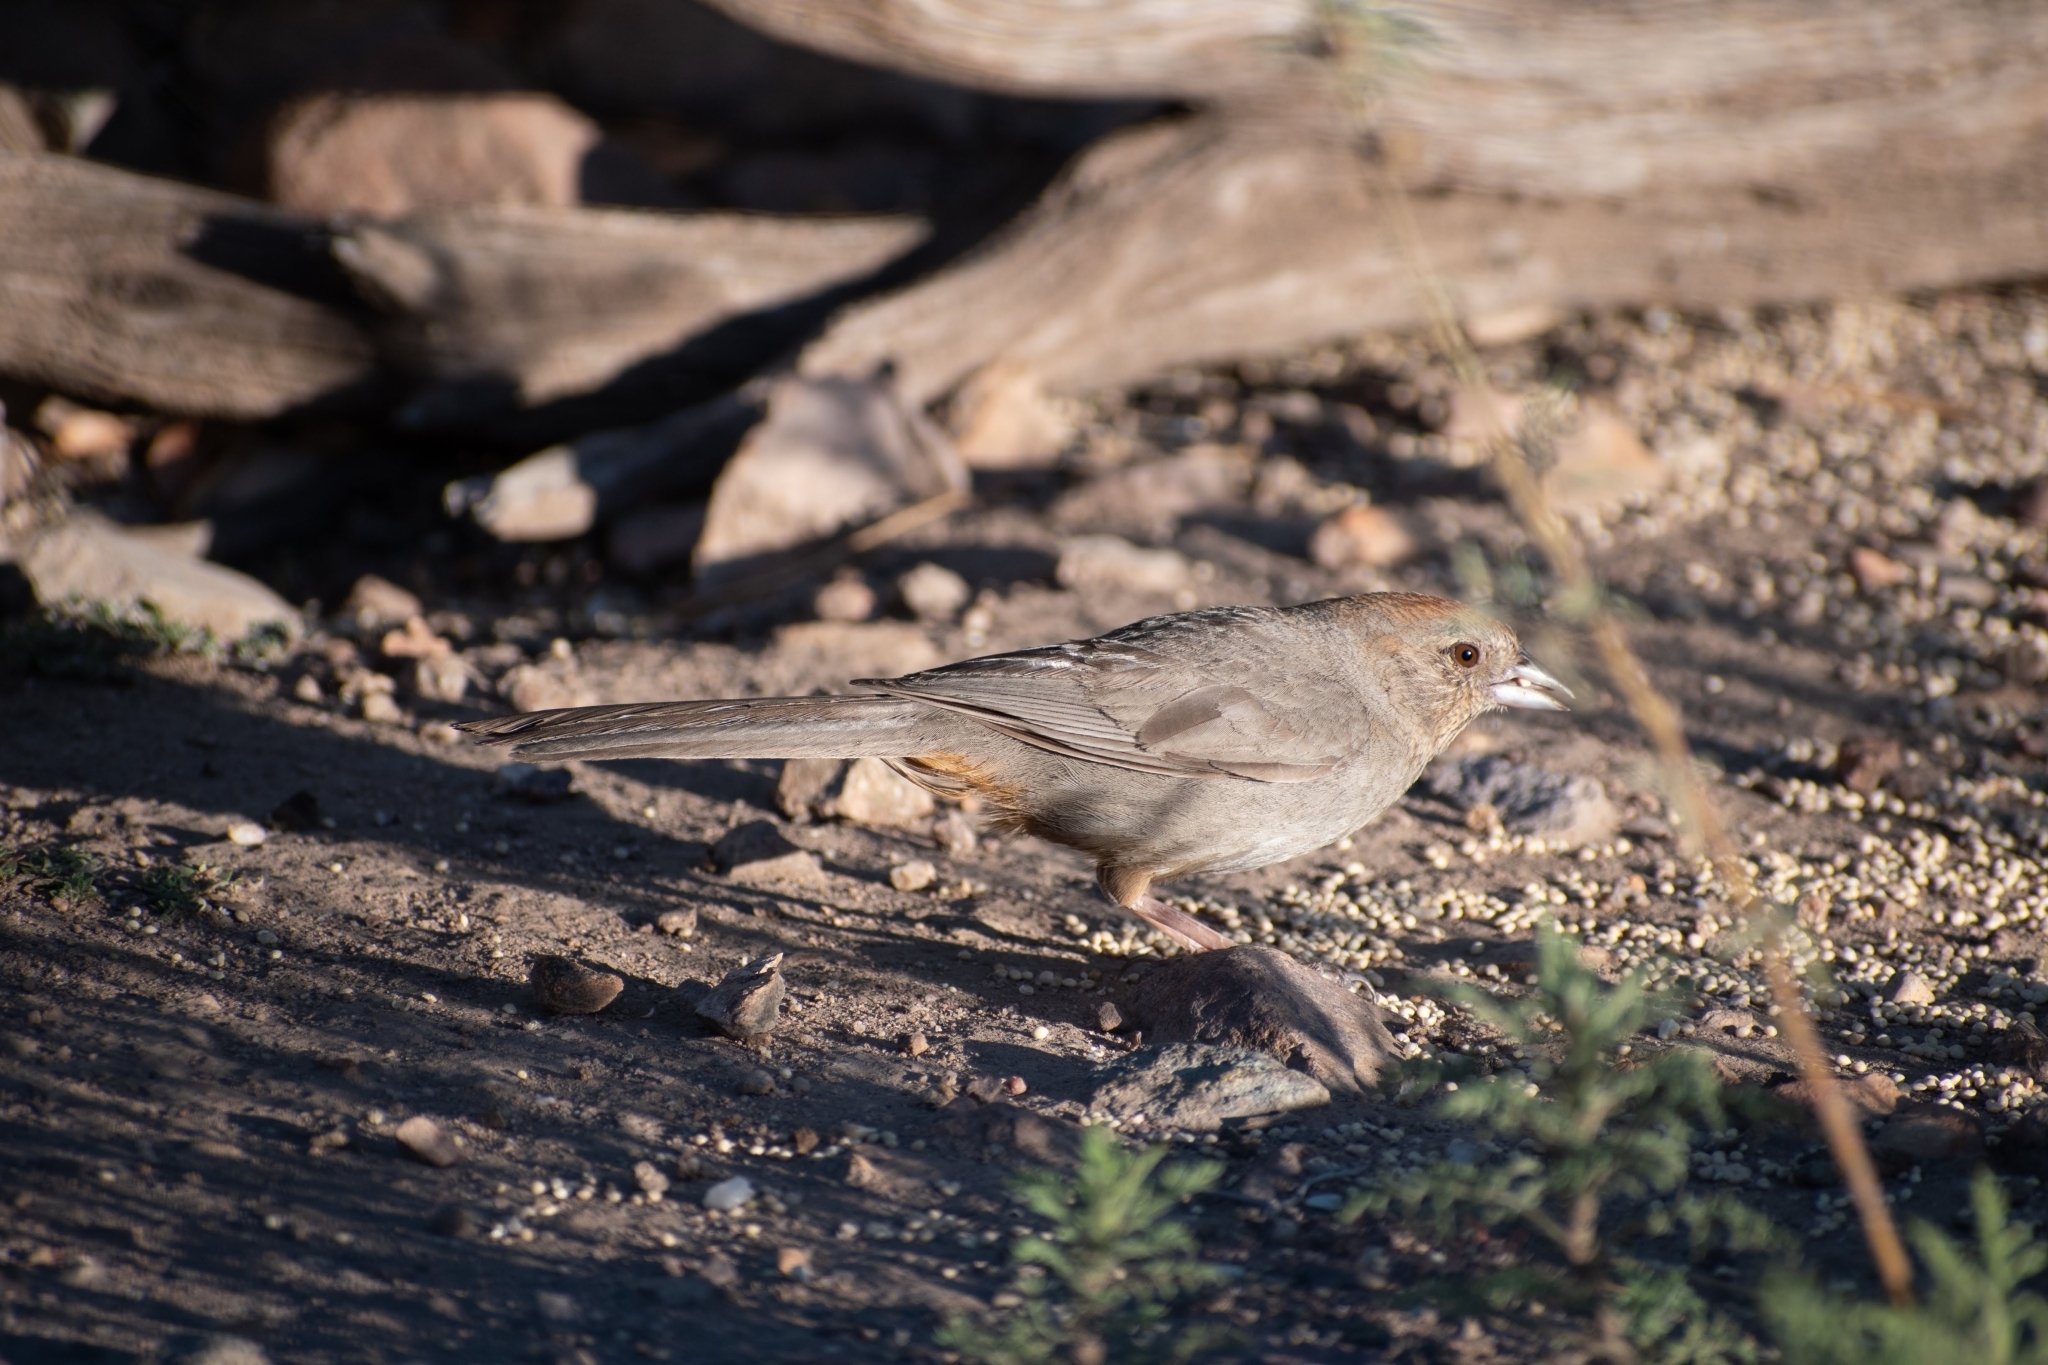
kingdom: Animalia
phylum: Chordata
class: Aves
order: Passeriformes
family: Passerellidae
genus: Melozone
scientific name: Melozone fusca
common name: Canyon towhee
